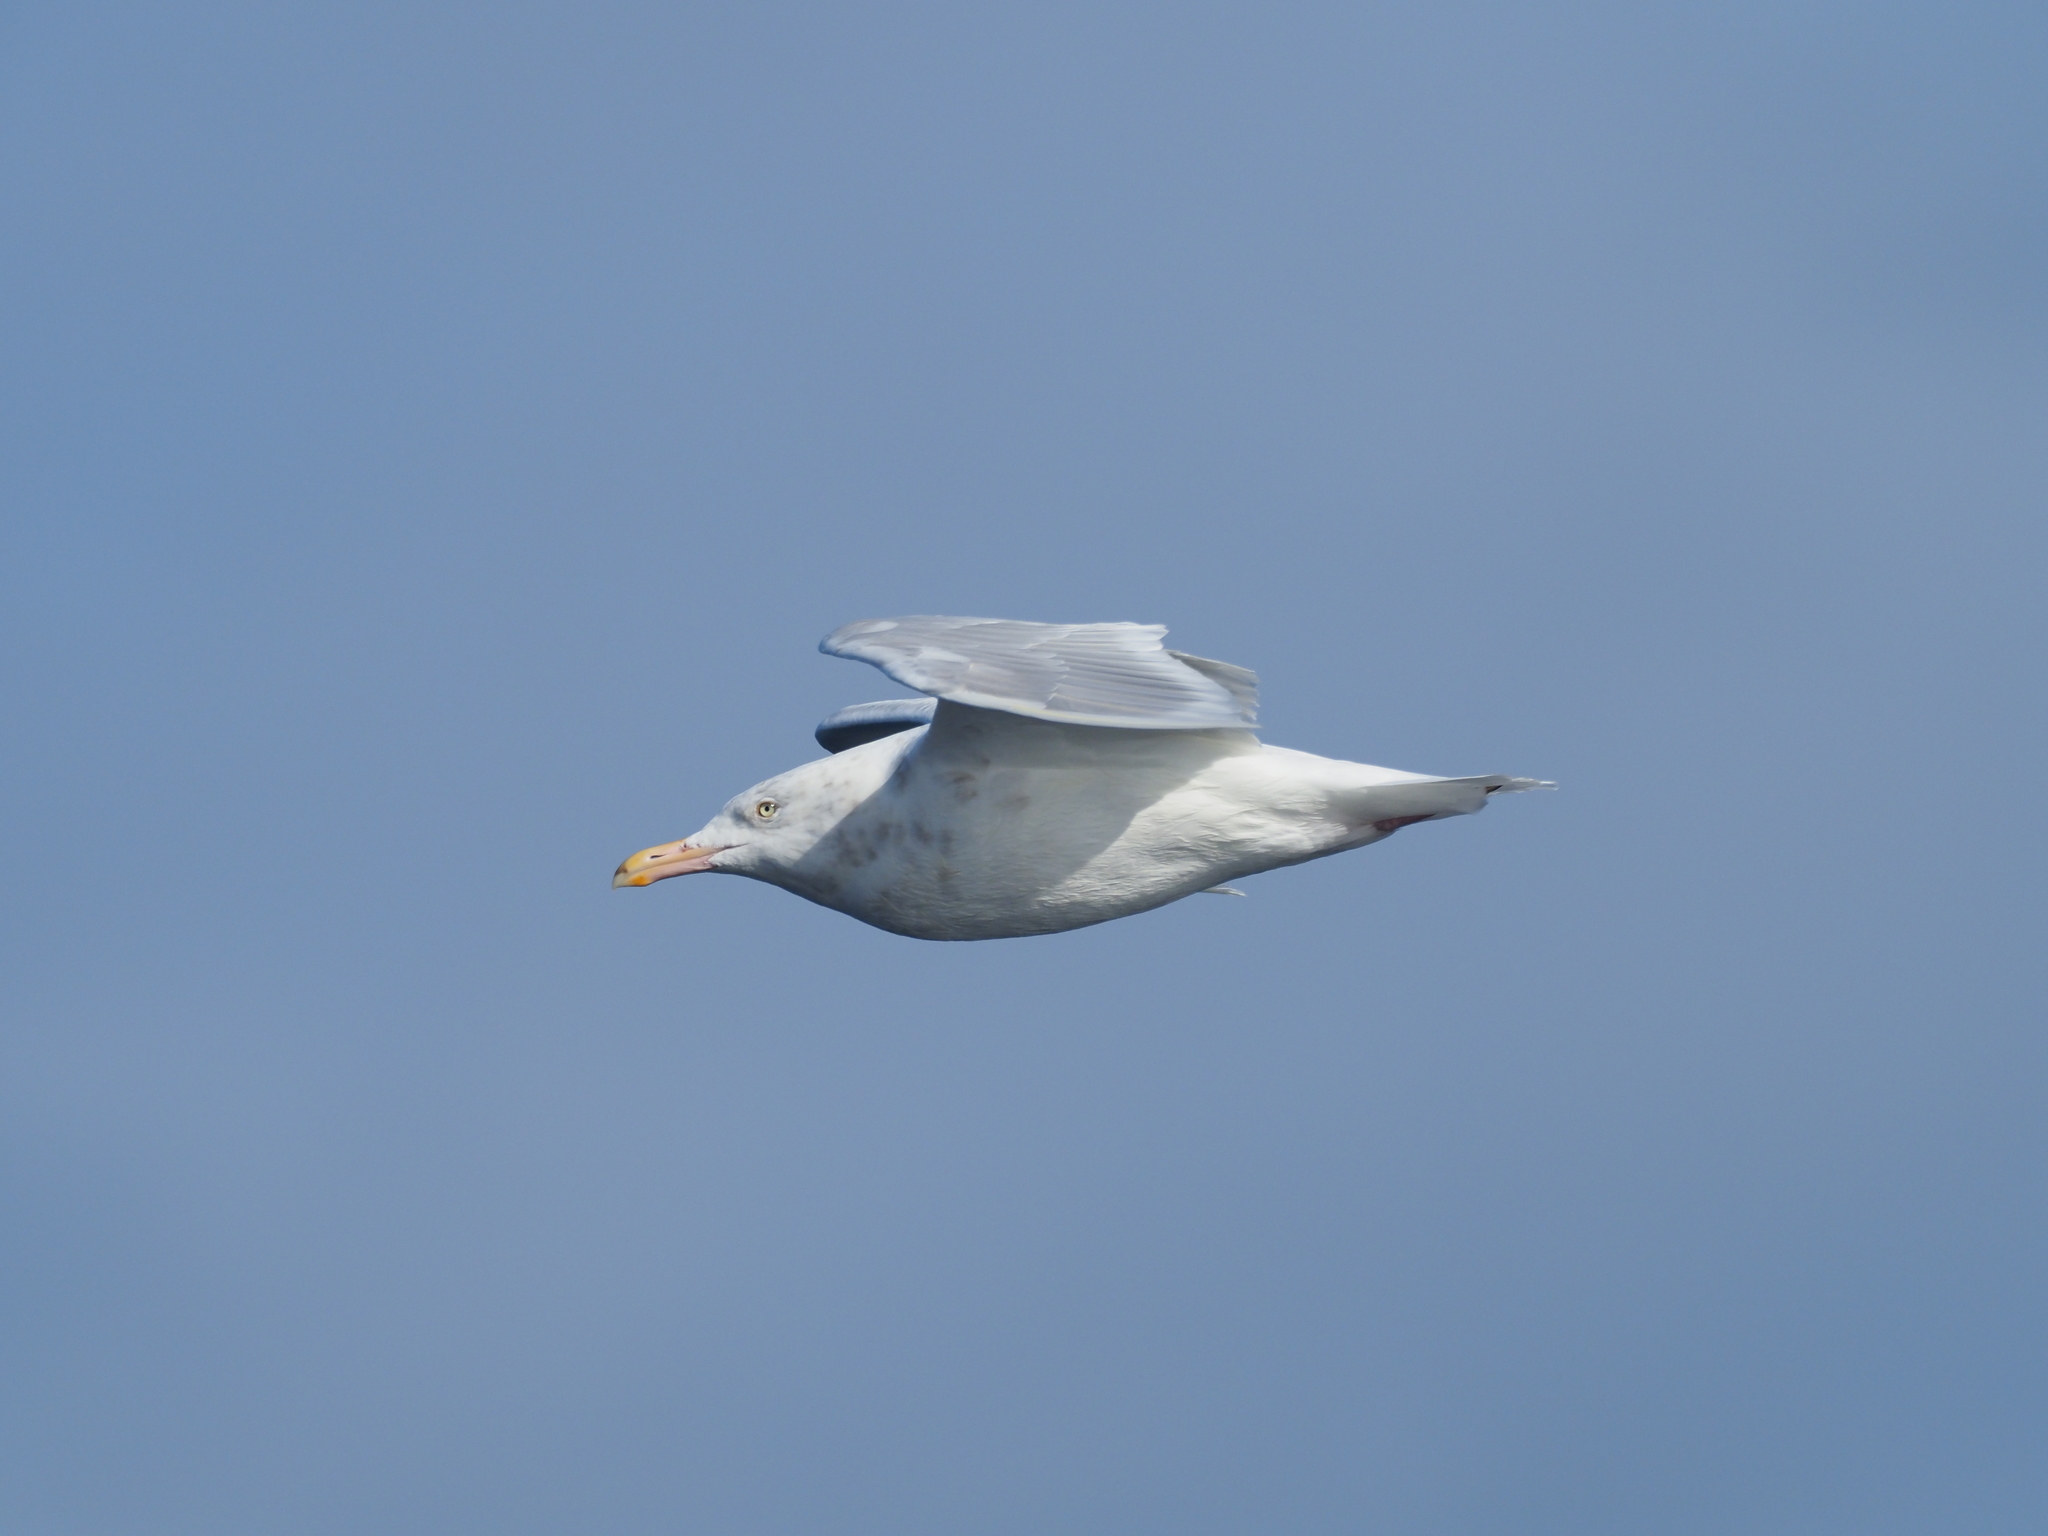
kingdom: Animalia
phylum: Chordata
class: Aves
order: Charadriiformes
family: Laridae
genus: Larus
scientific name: Larus hyperboreus
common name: Glaucous gull
